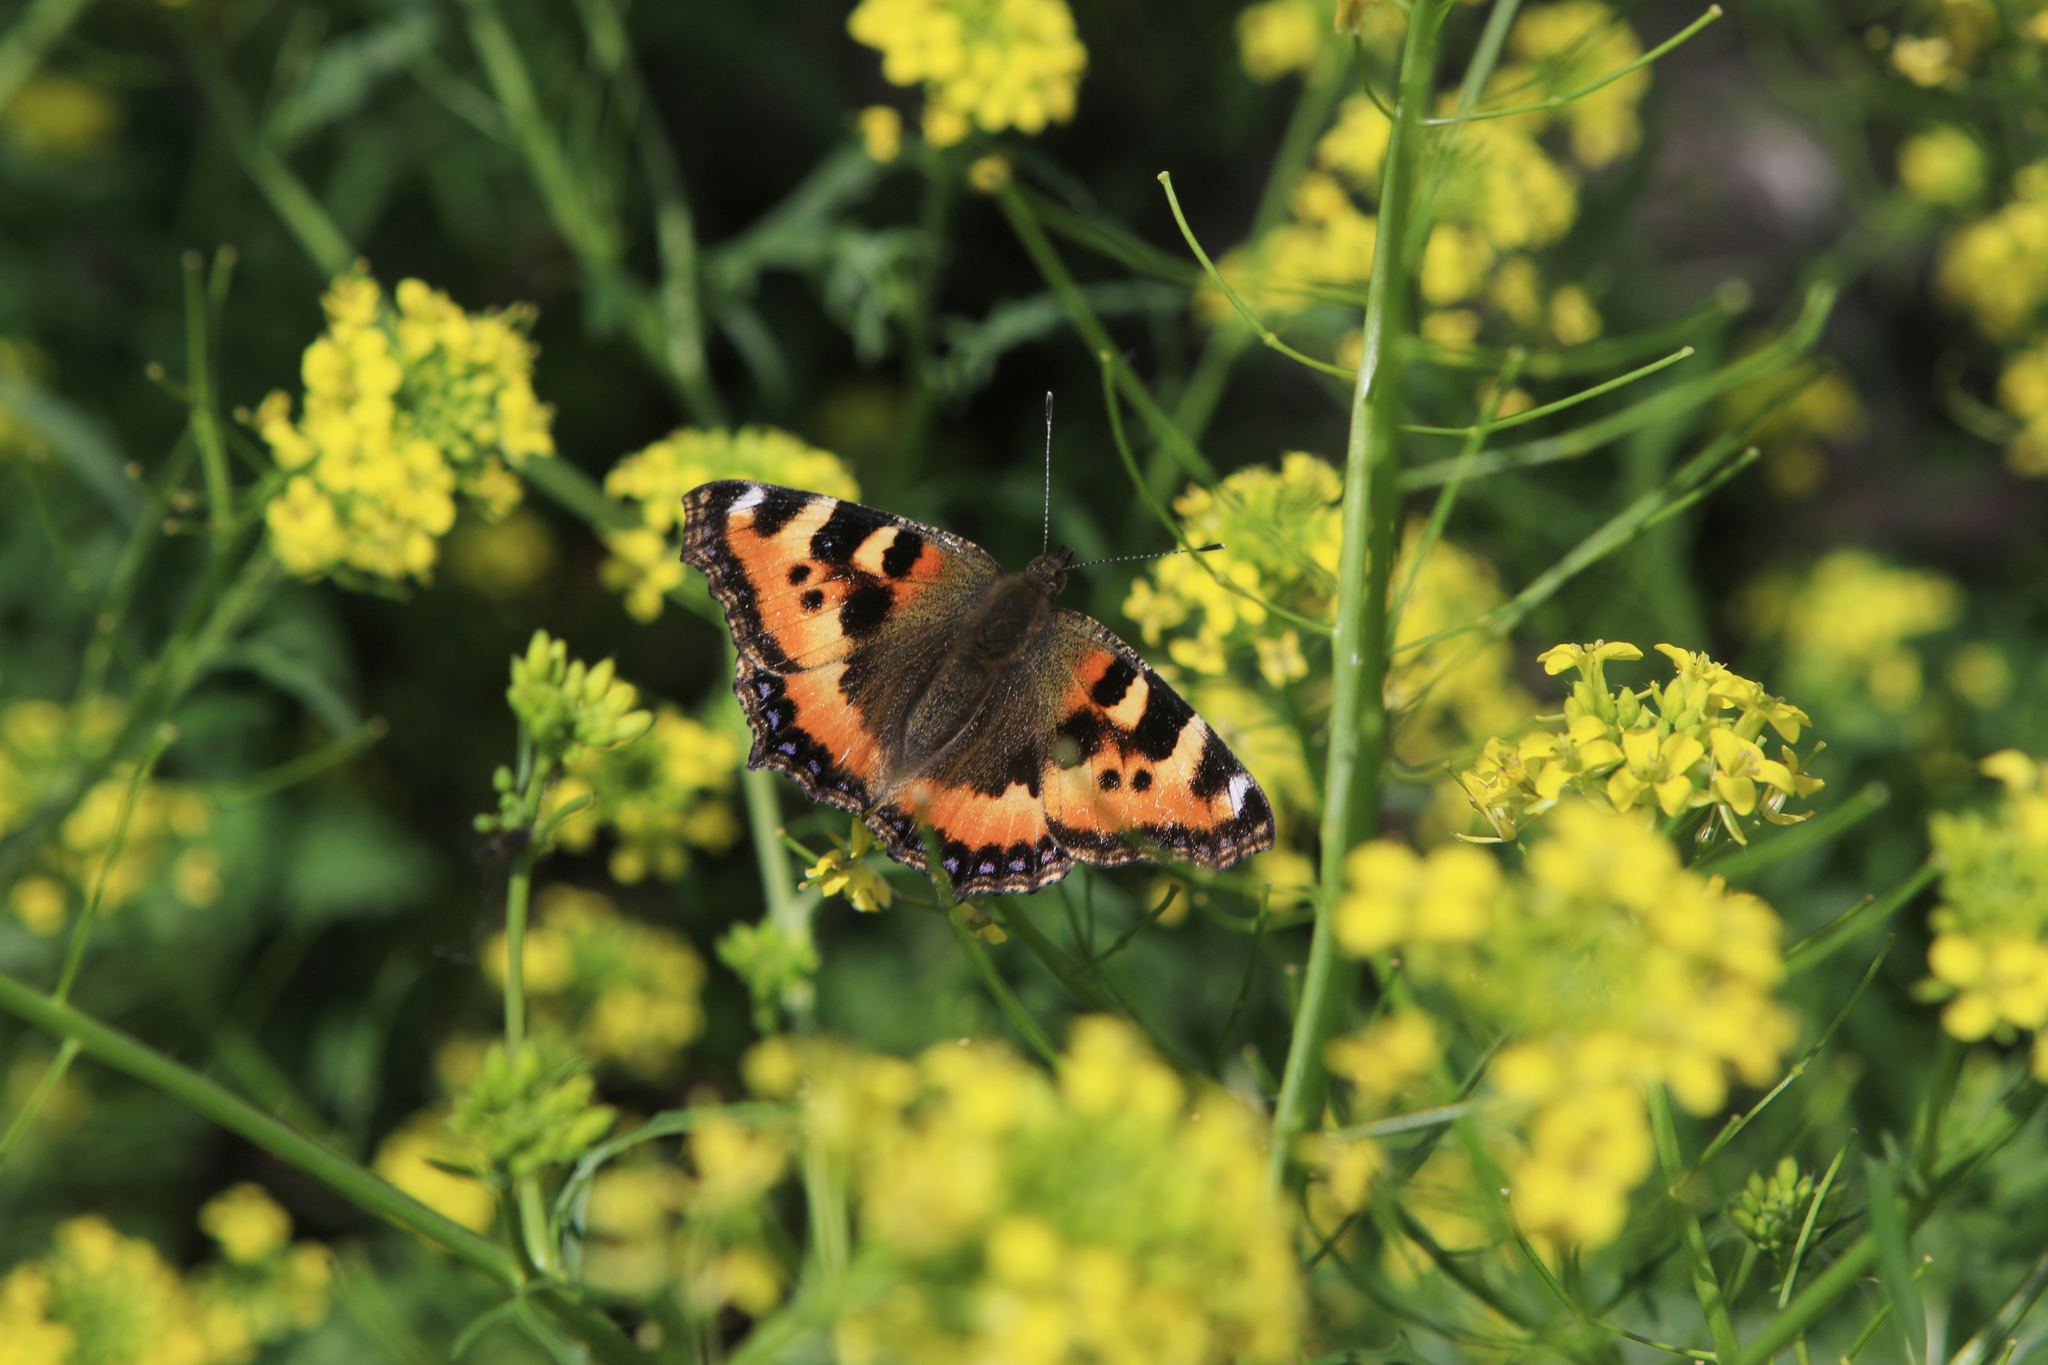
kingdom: Animalia
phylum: Arthropoda
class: Insecta
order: Lepidoptera
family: Nymphalidae
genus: Aglais
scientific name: Aglais urticae
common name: Small tortoiseshell
